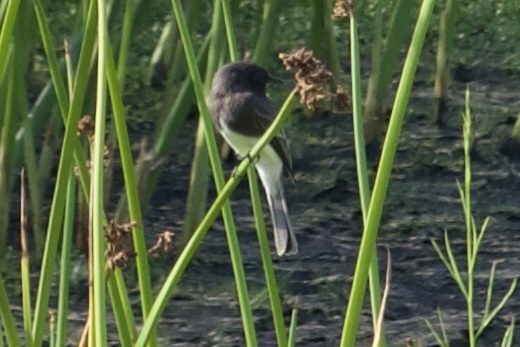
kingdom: Animalia
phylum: Chordata
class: Aves
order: Passeriformes
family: Tyrannidae
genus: Sayornis
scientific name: Sayornis nigricans
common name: Black phoebe
